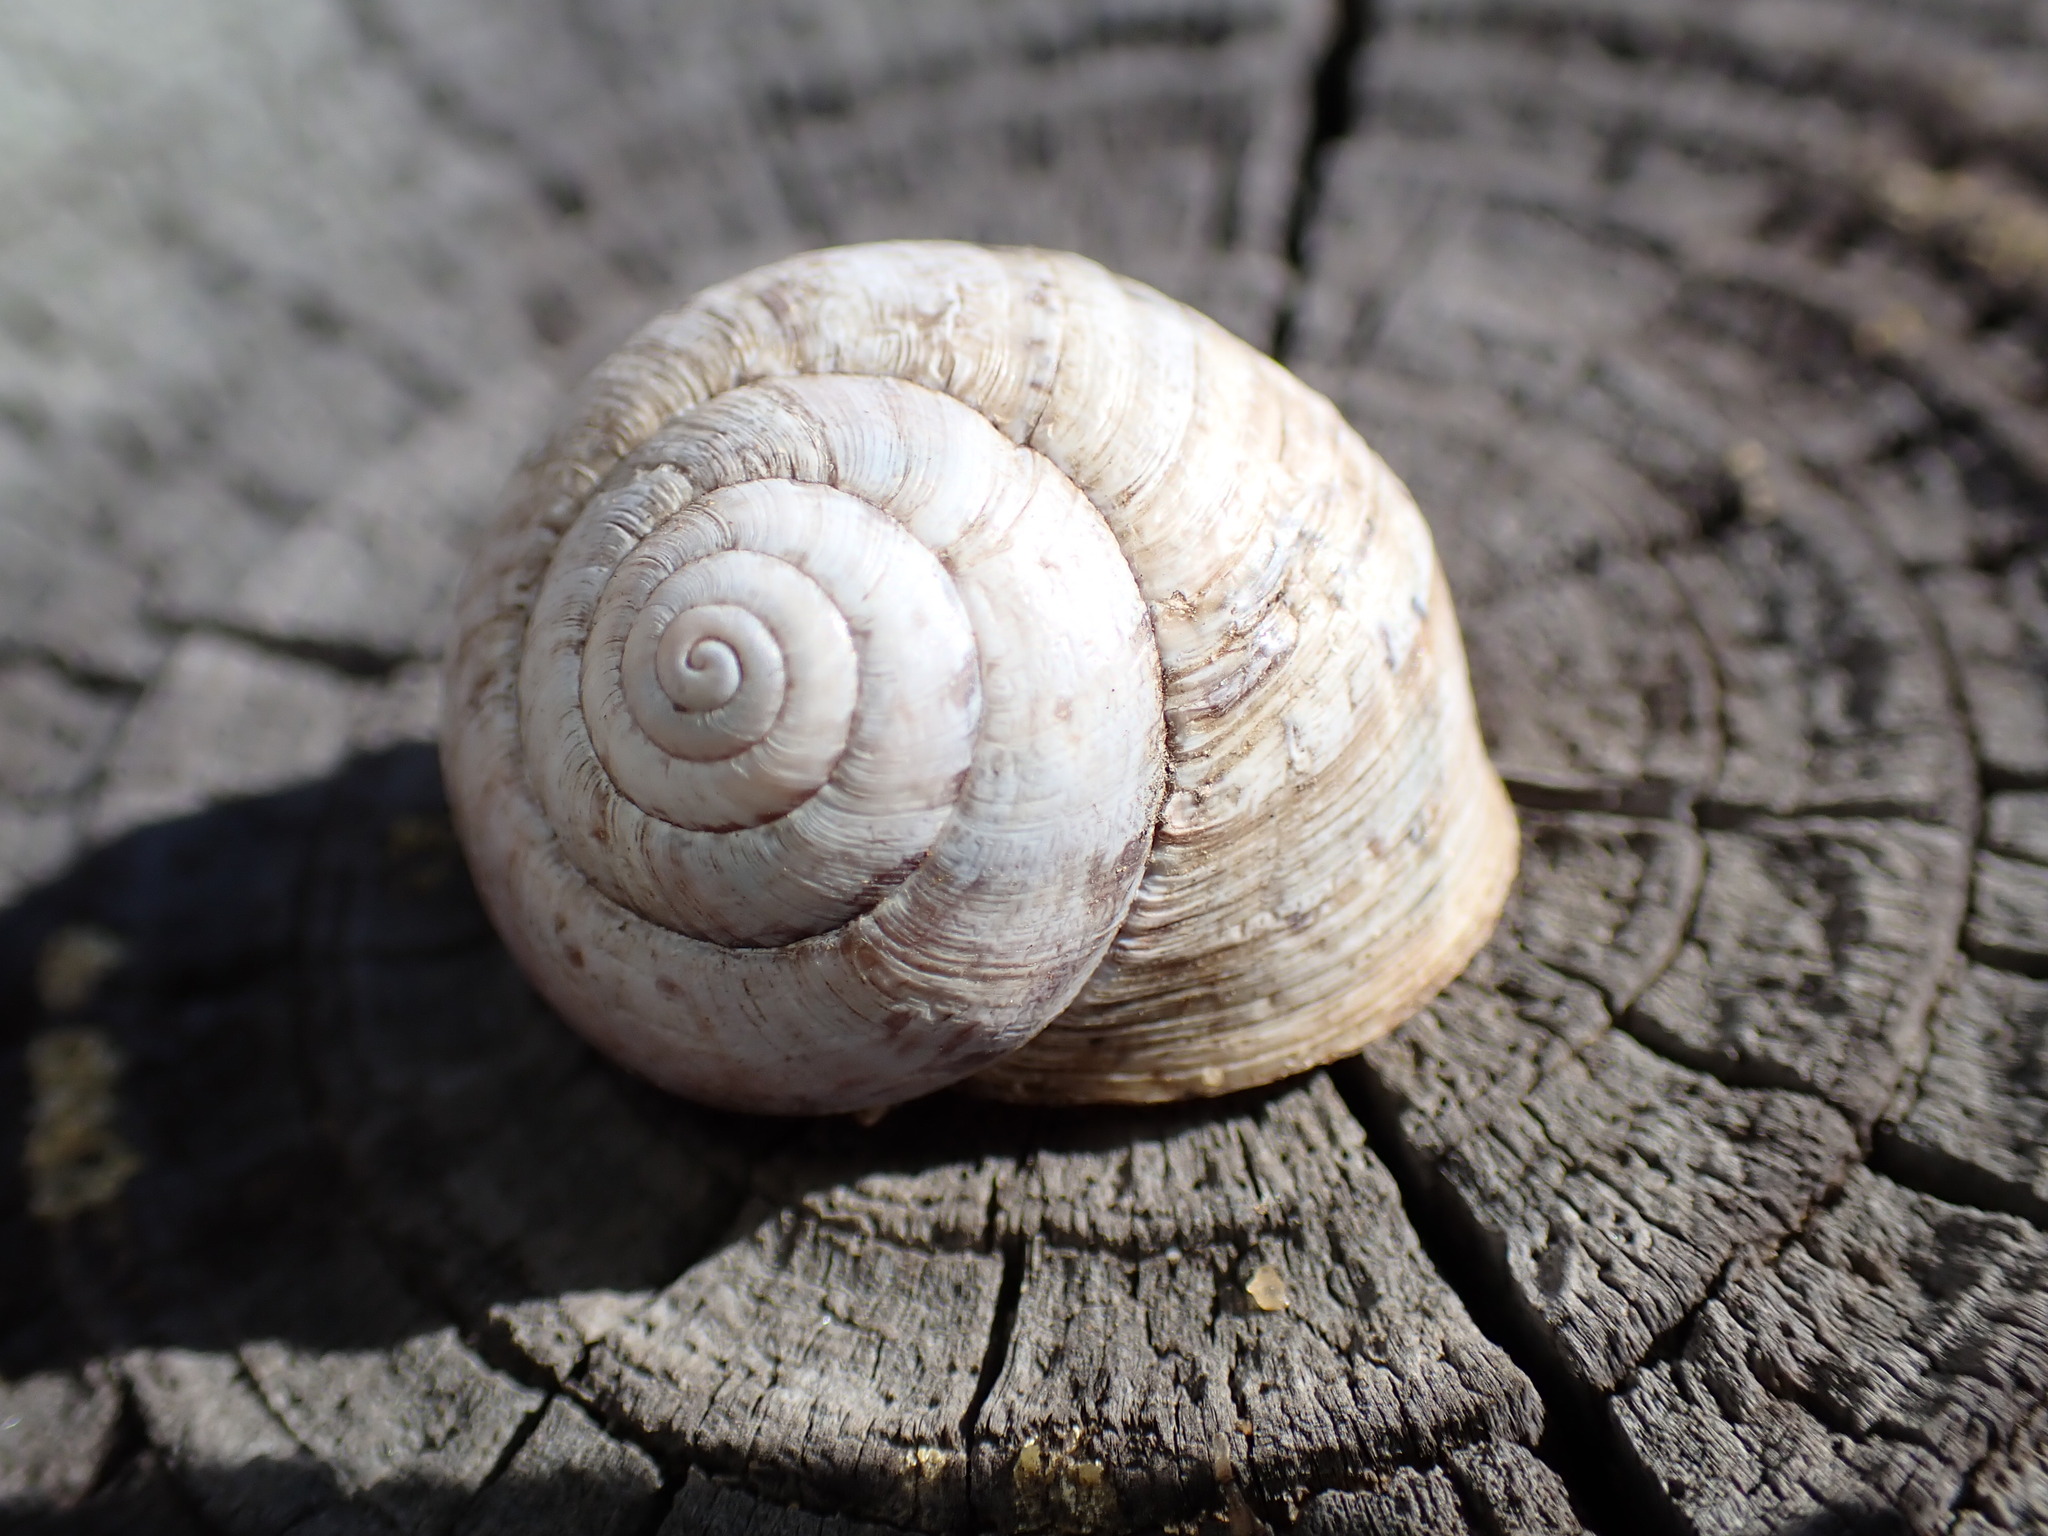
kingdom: Animalia
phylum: Mollusca
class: Gastropoda
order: Stylommatophora
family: Xanthonychidae
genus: Xerarionta
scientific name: Xerarionta stearnsiana
